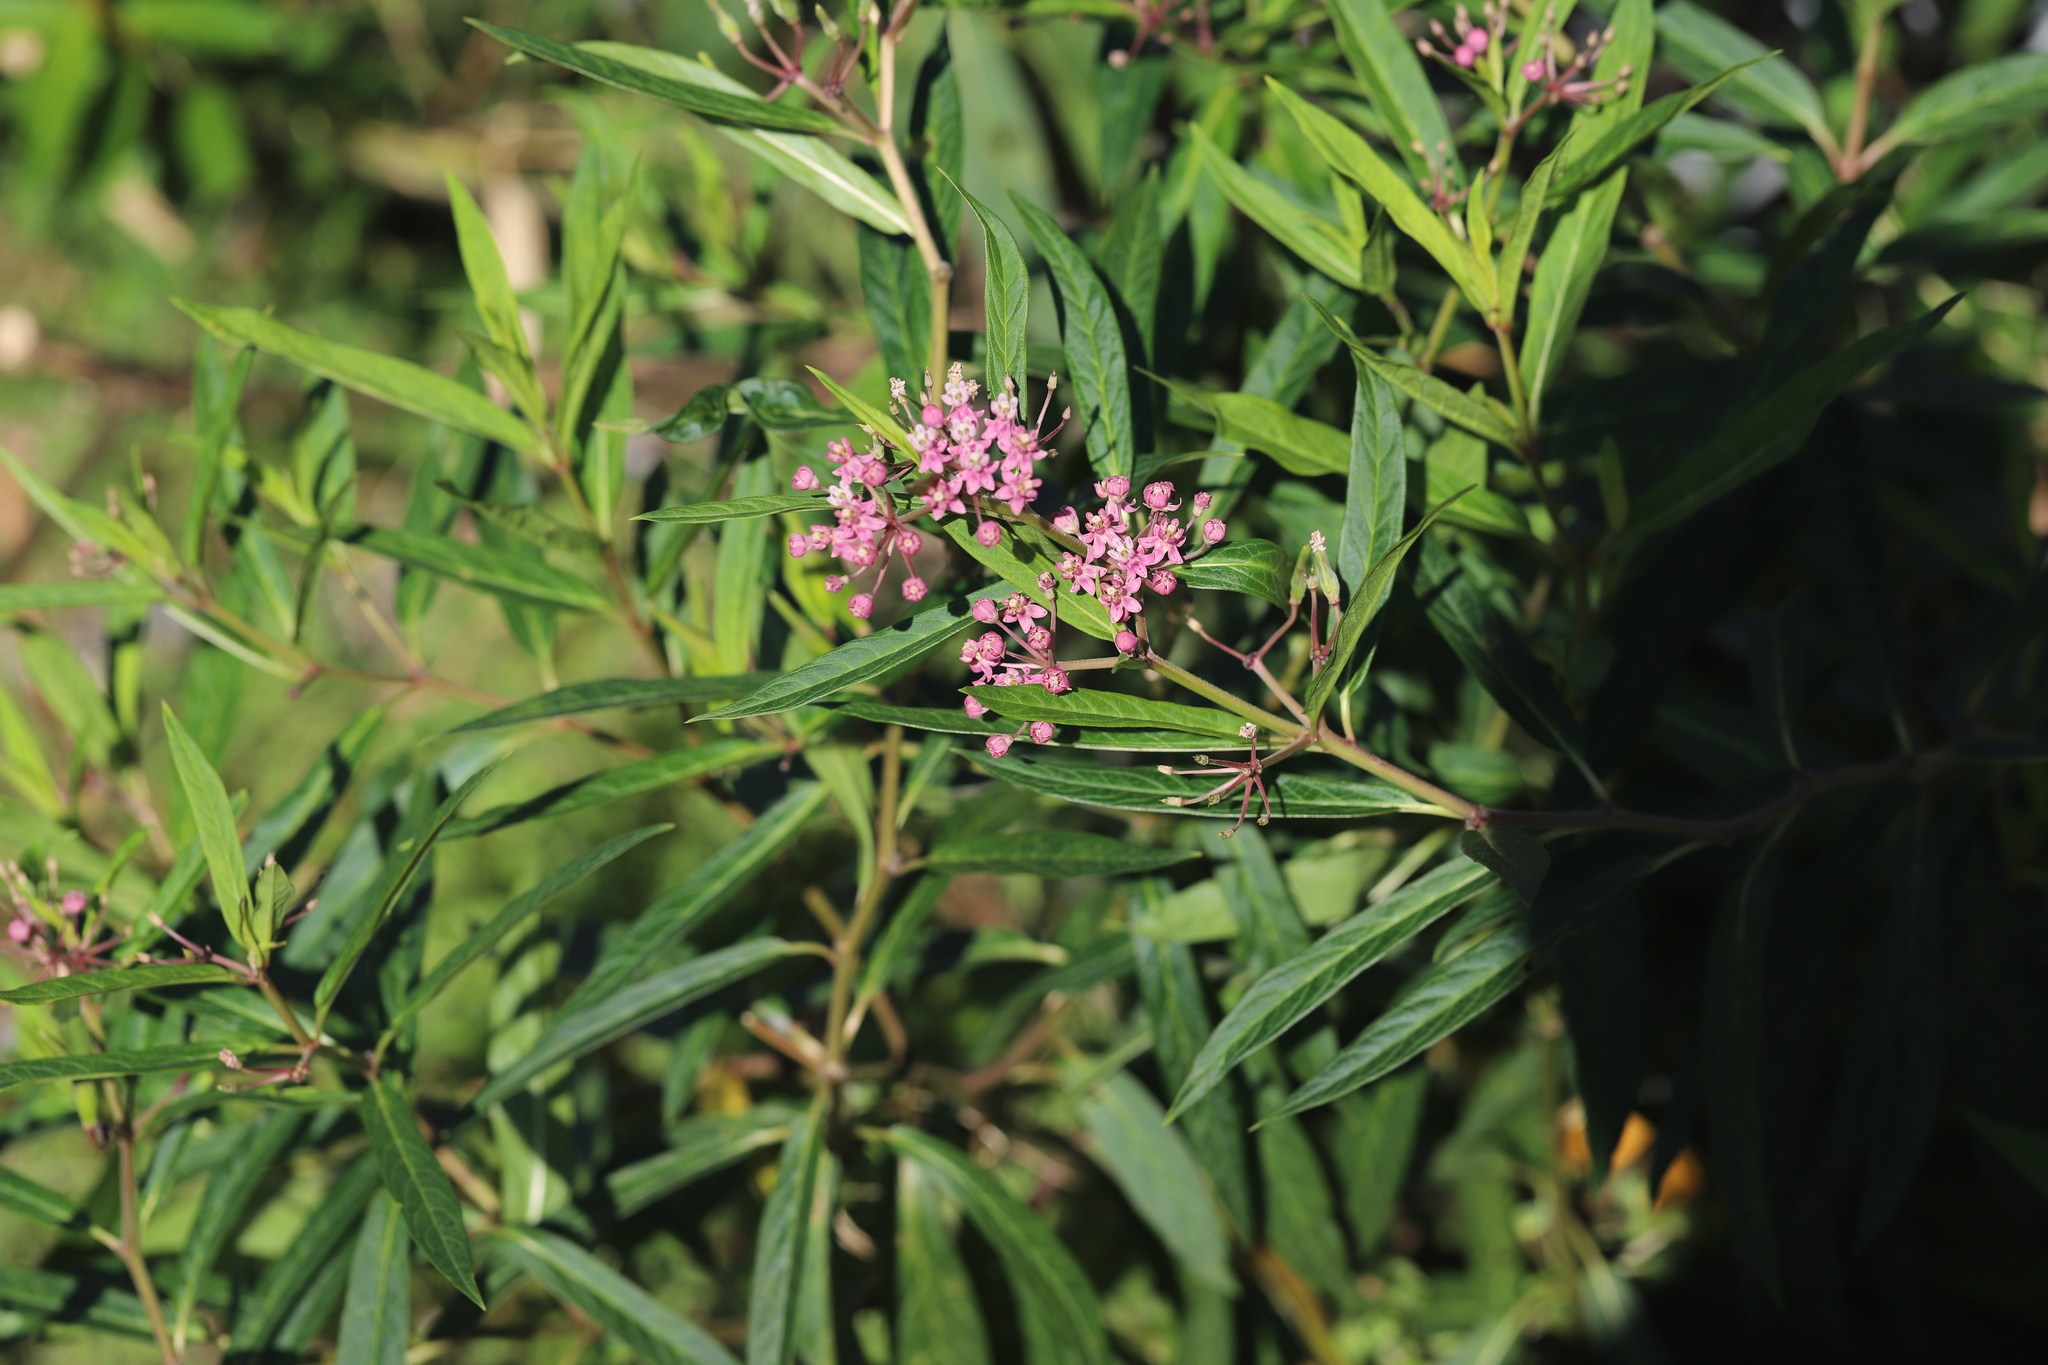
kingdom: Plantae
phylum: Tracheophyta
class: Magnoliopsida
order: Gentianales
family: Apocynaceae
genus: Asclepias
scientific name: Asclepias incarnata
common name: Swamp milkweed
